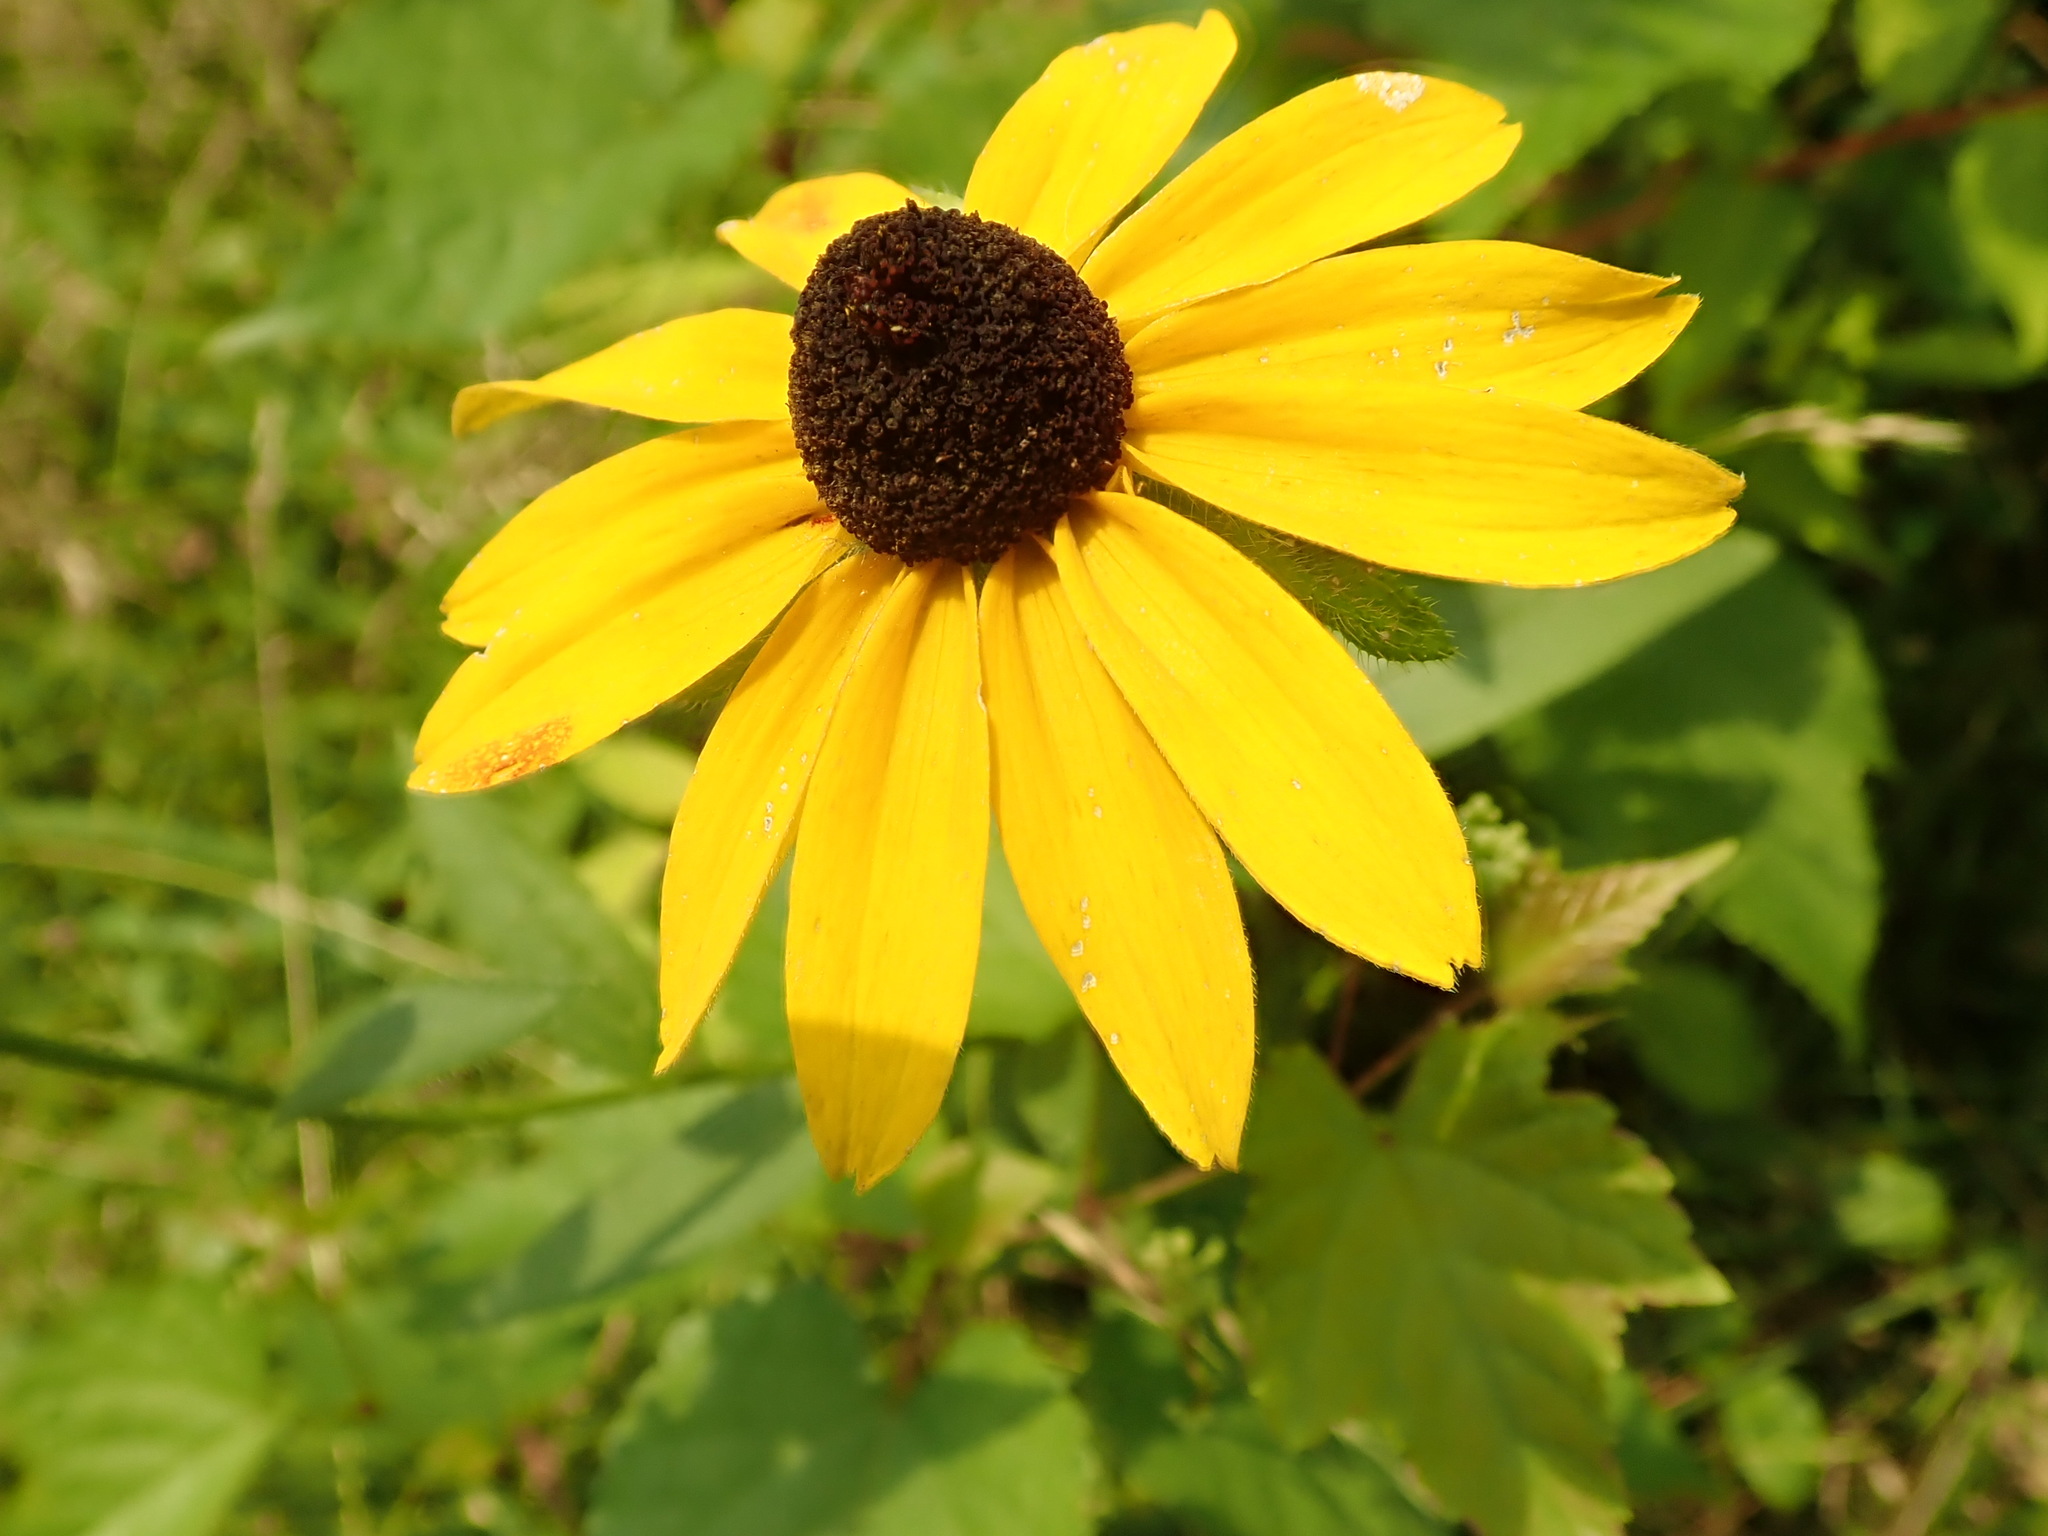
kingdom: Plantae
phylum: Tracheophyta
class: Magnoliopsida
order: Asterales
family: Asteraceae
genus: Rudbeckia
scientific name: Rudbeckia hirta
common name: Black-eyed-susan
